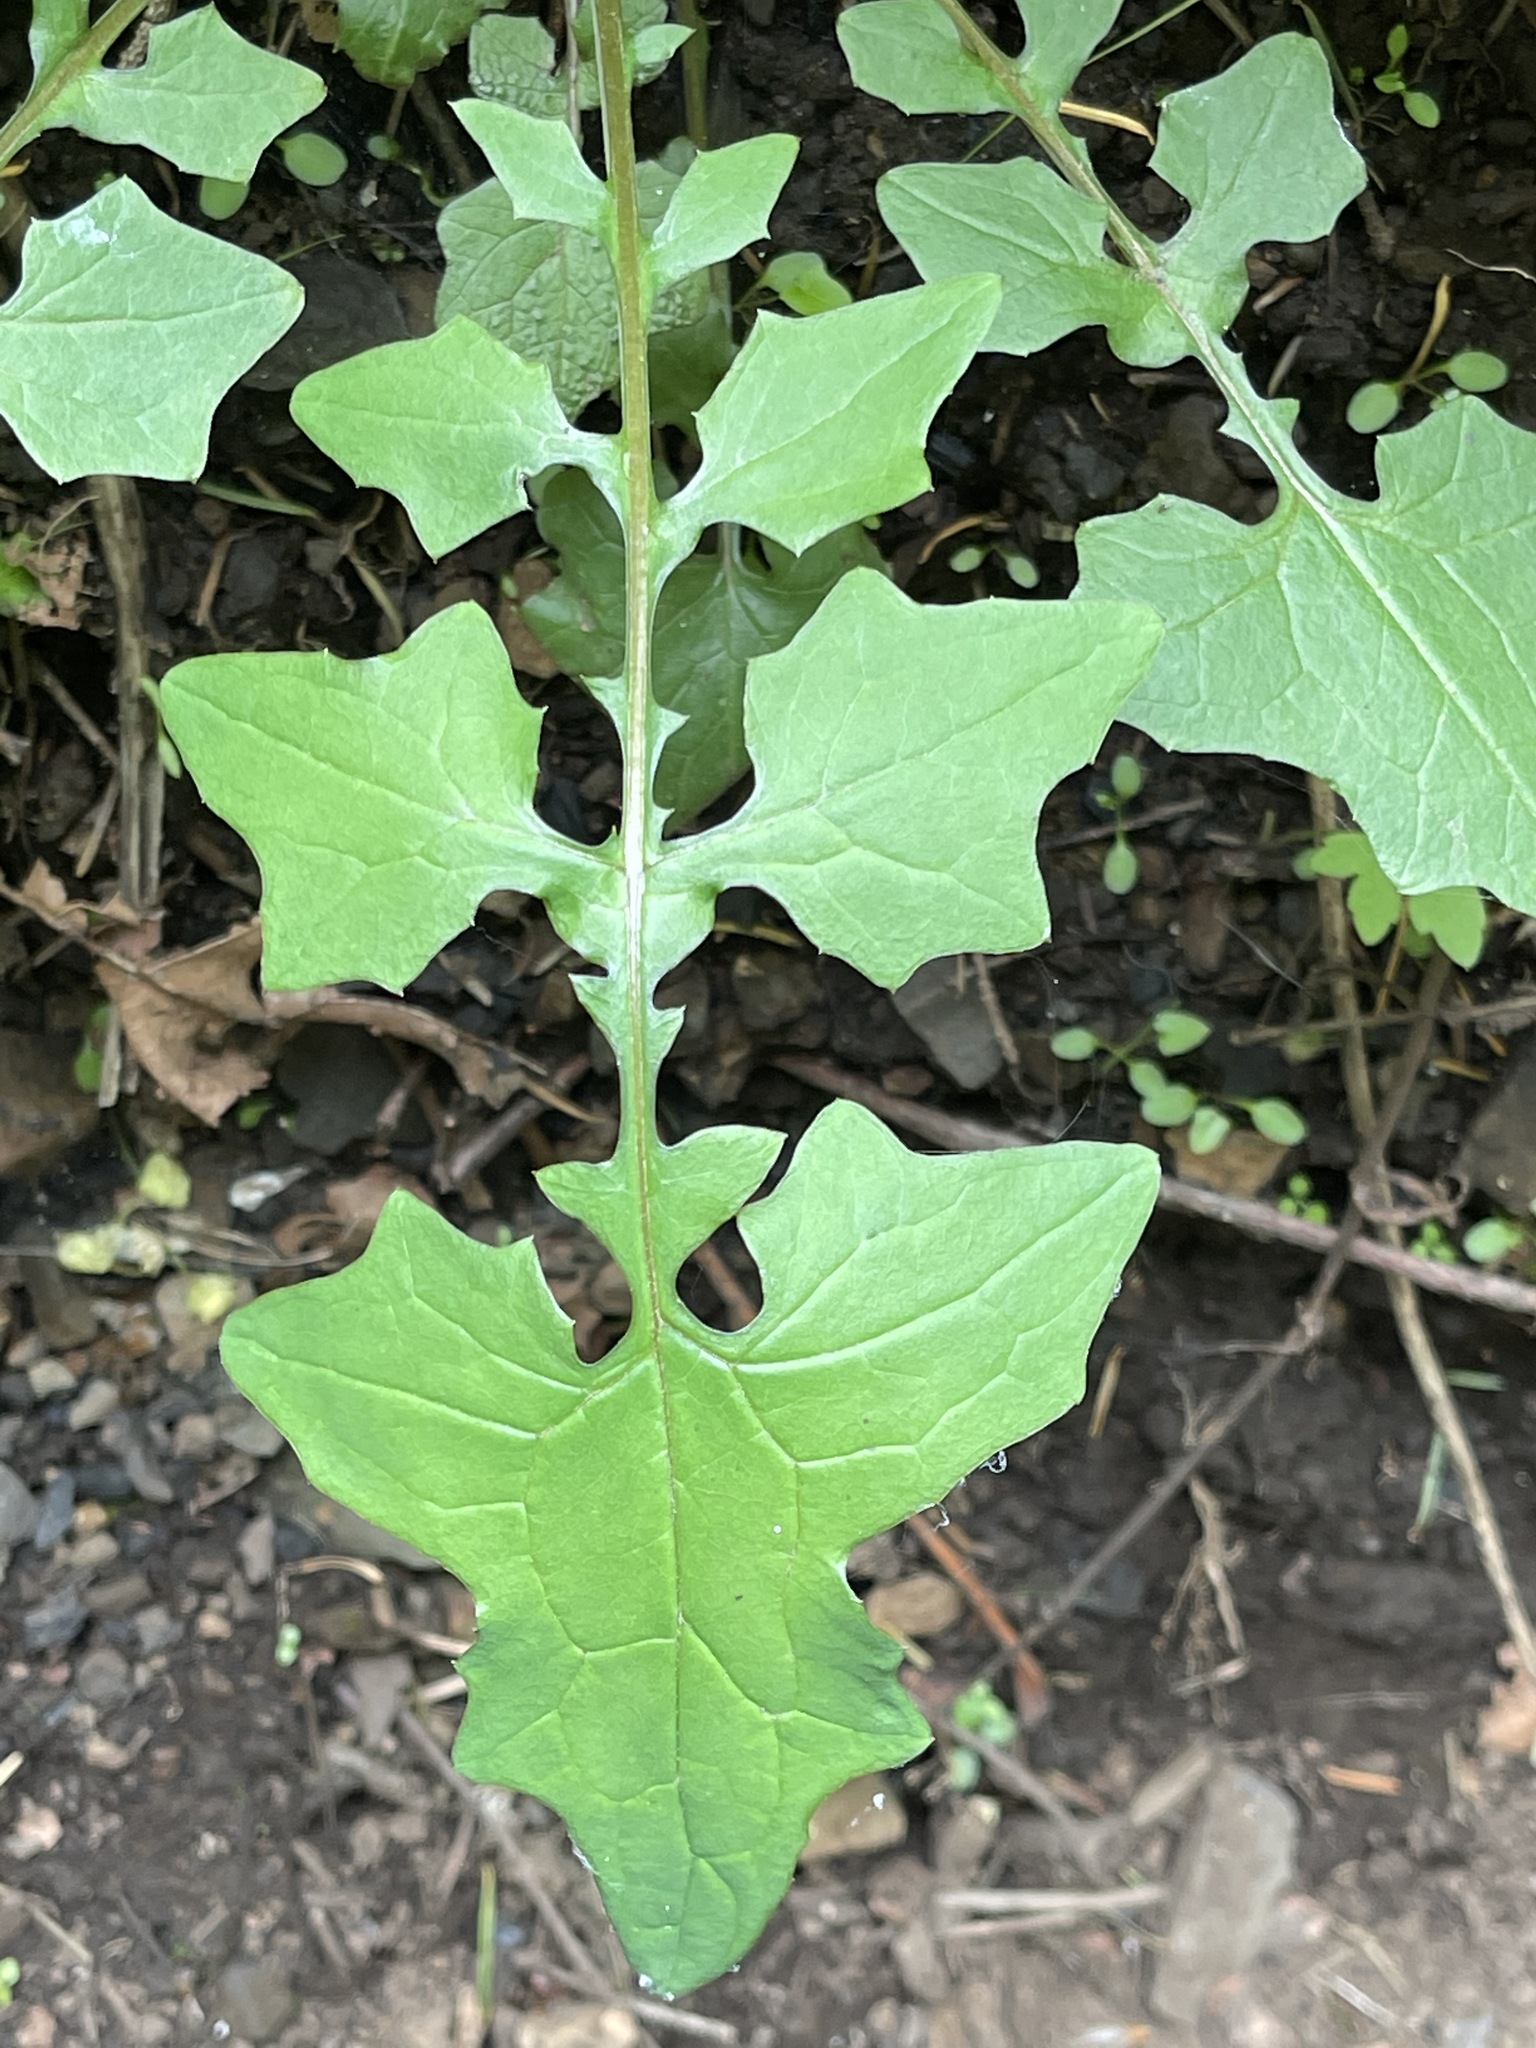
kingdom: Plantae
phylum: Tracheophyta
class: Magnoliopsida
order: Asterales
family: Asteraceae
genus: Mycelis
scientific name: Mycelis muralis
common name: Wall lettuce
